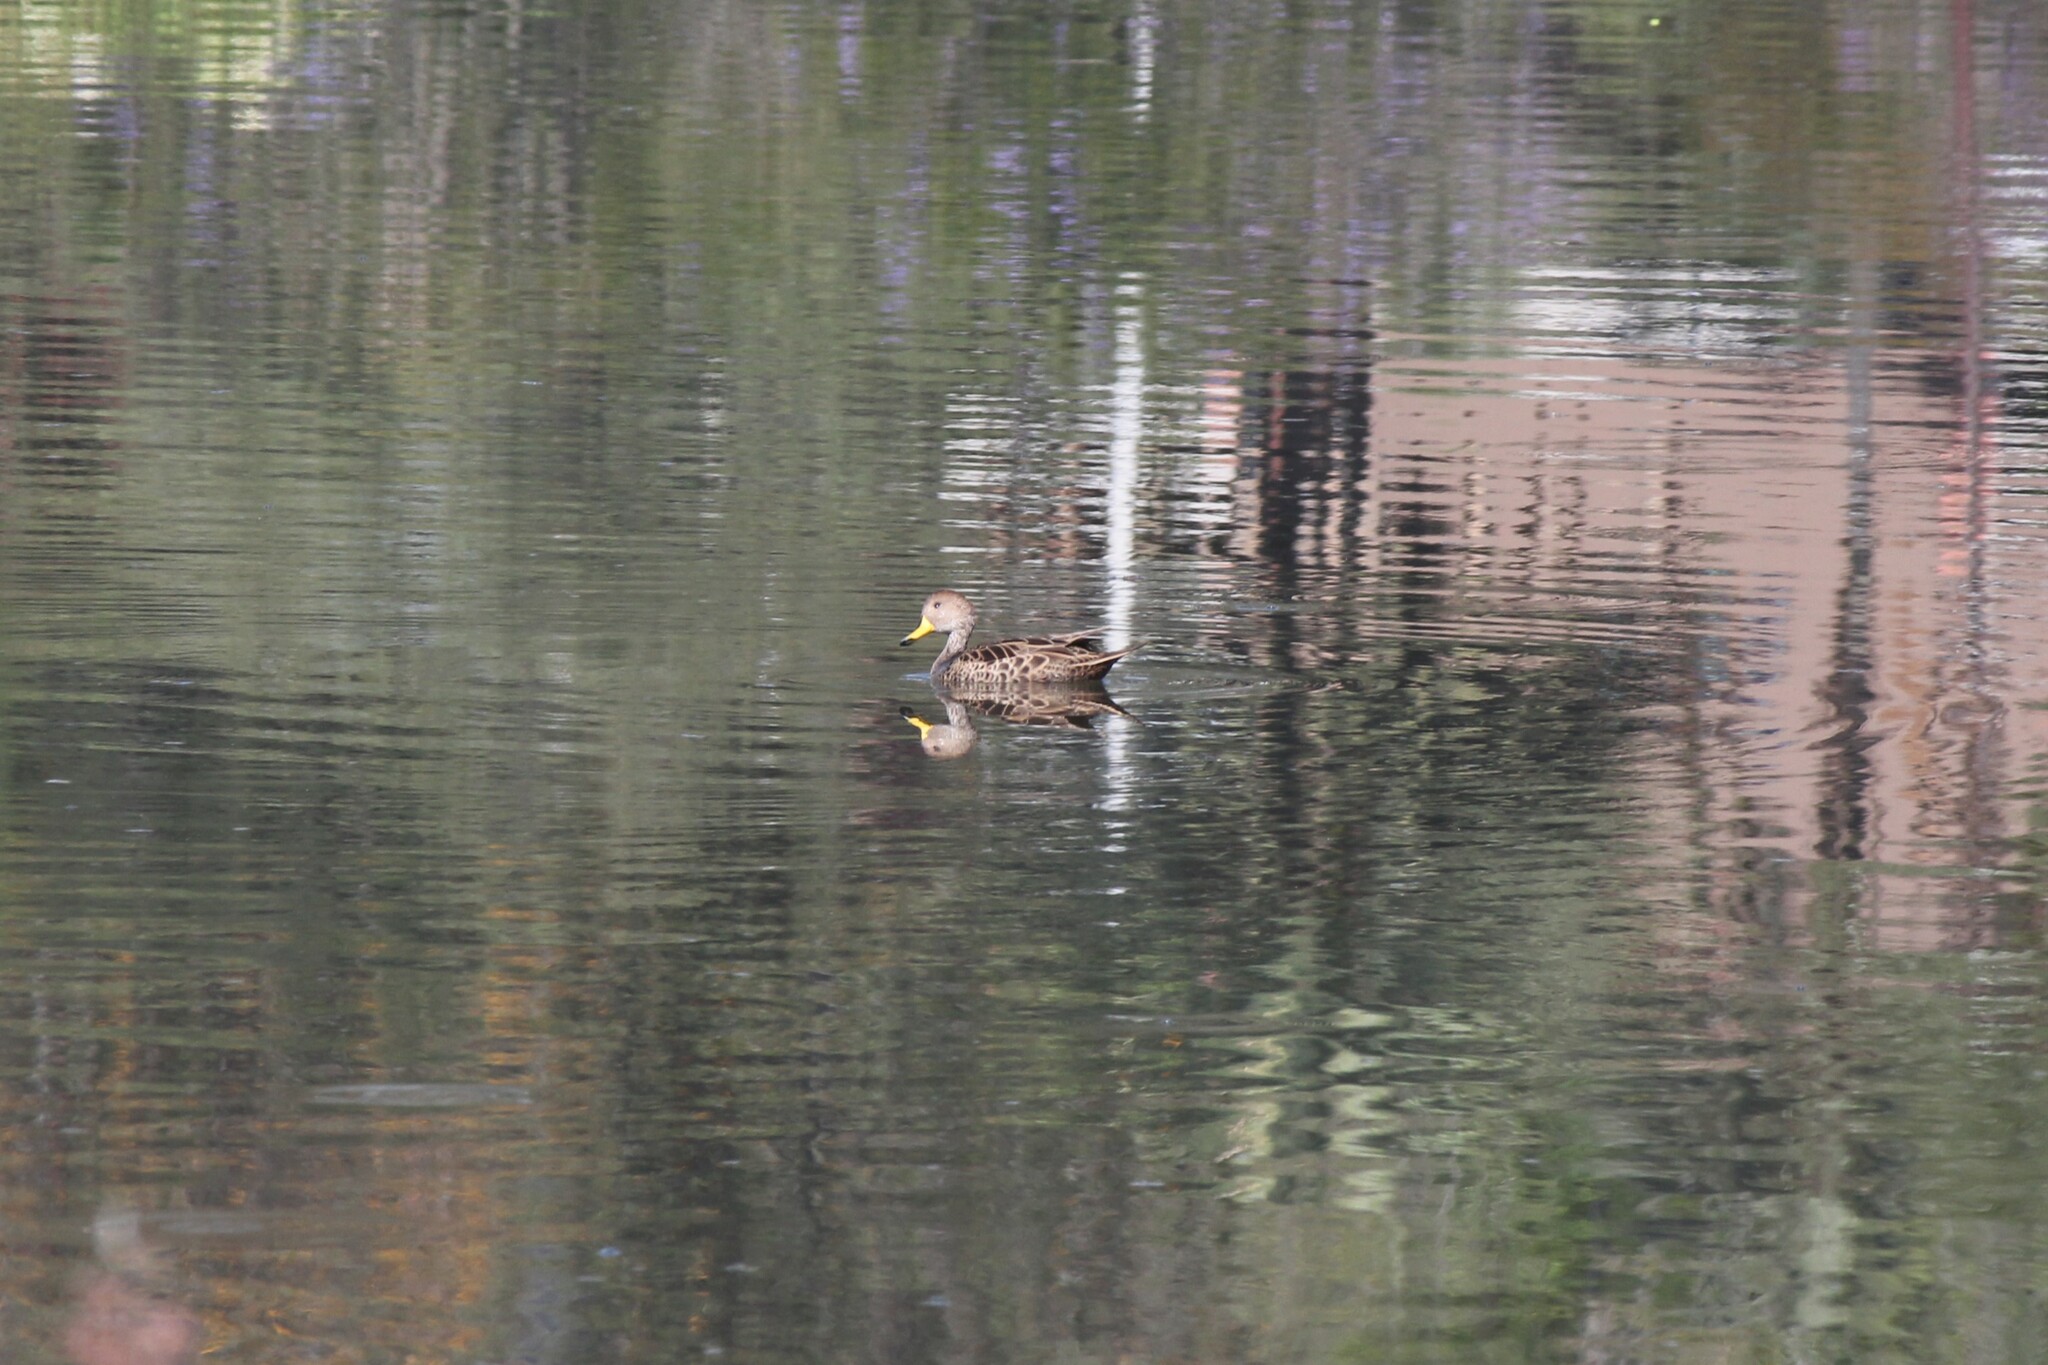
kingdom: Animalia
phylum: Chordata
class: Aves
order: Anseriformes
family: Anatidae
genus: Anas
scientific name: Anas georgica
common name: Yellow-billed pintail
